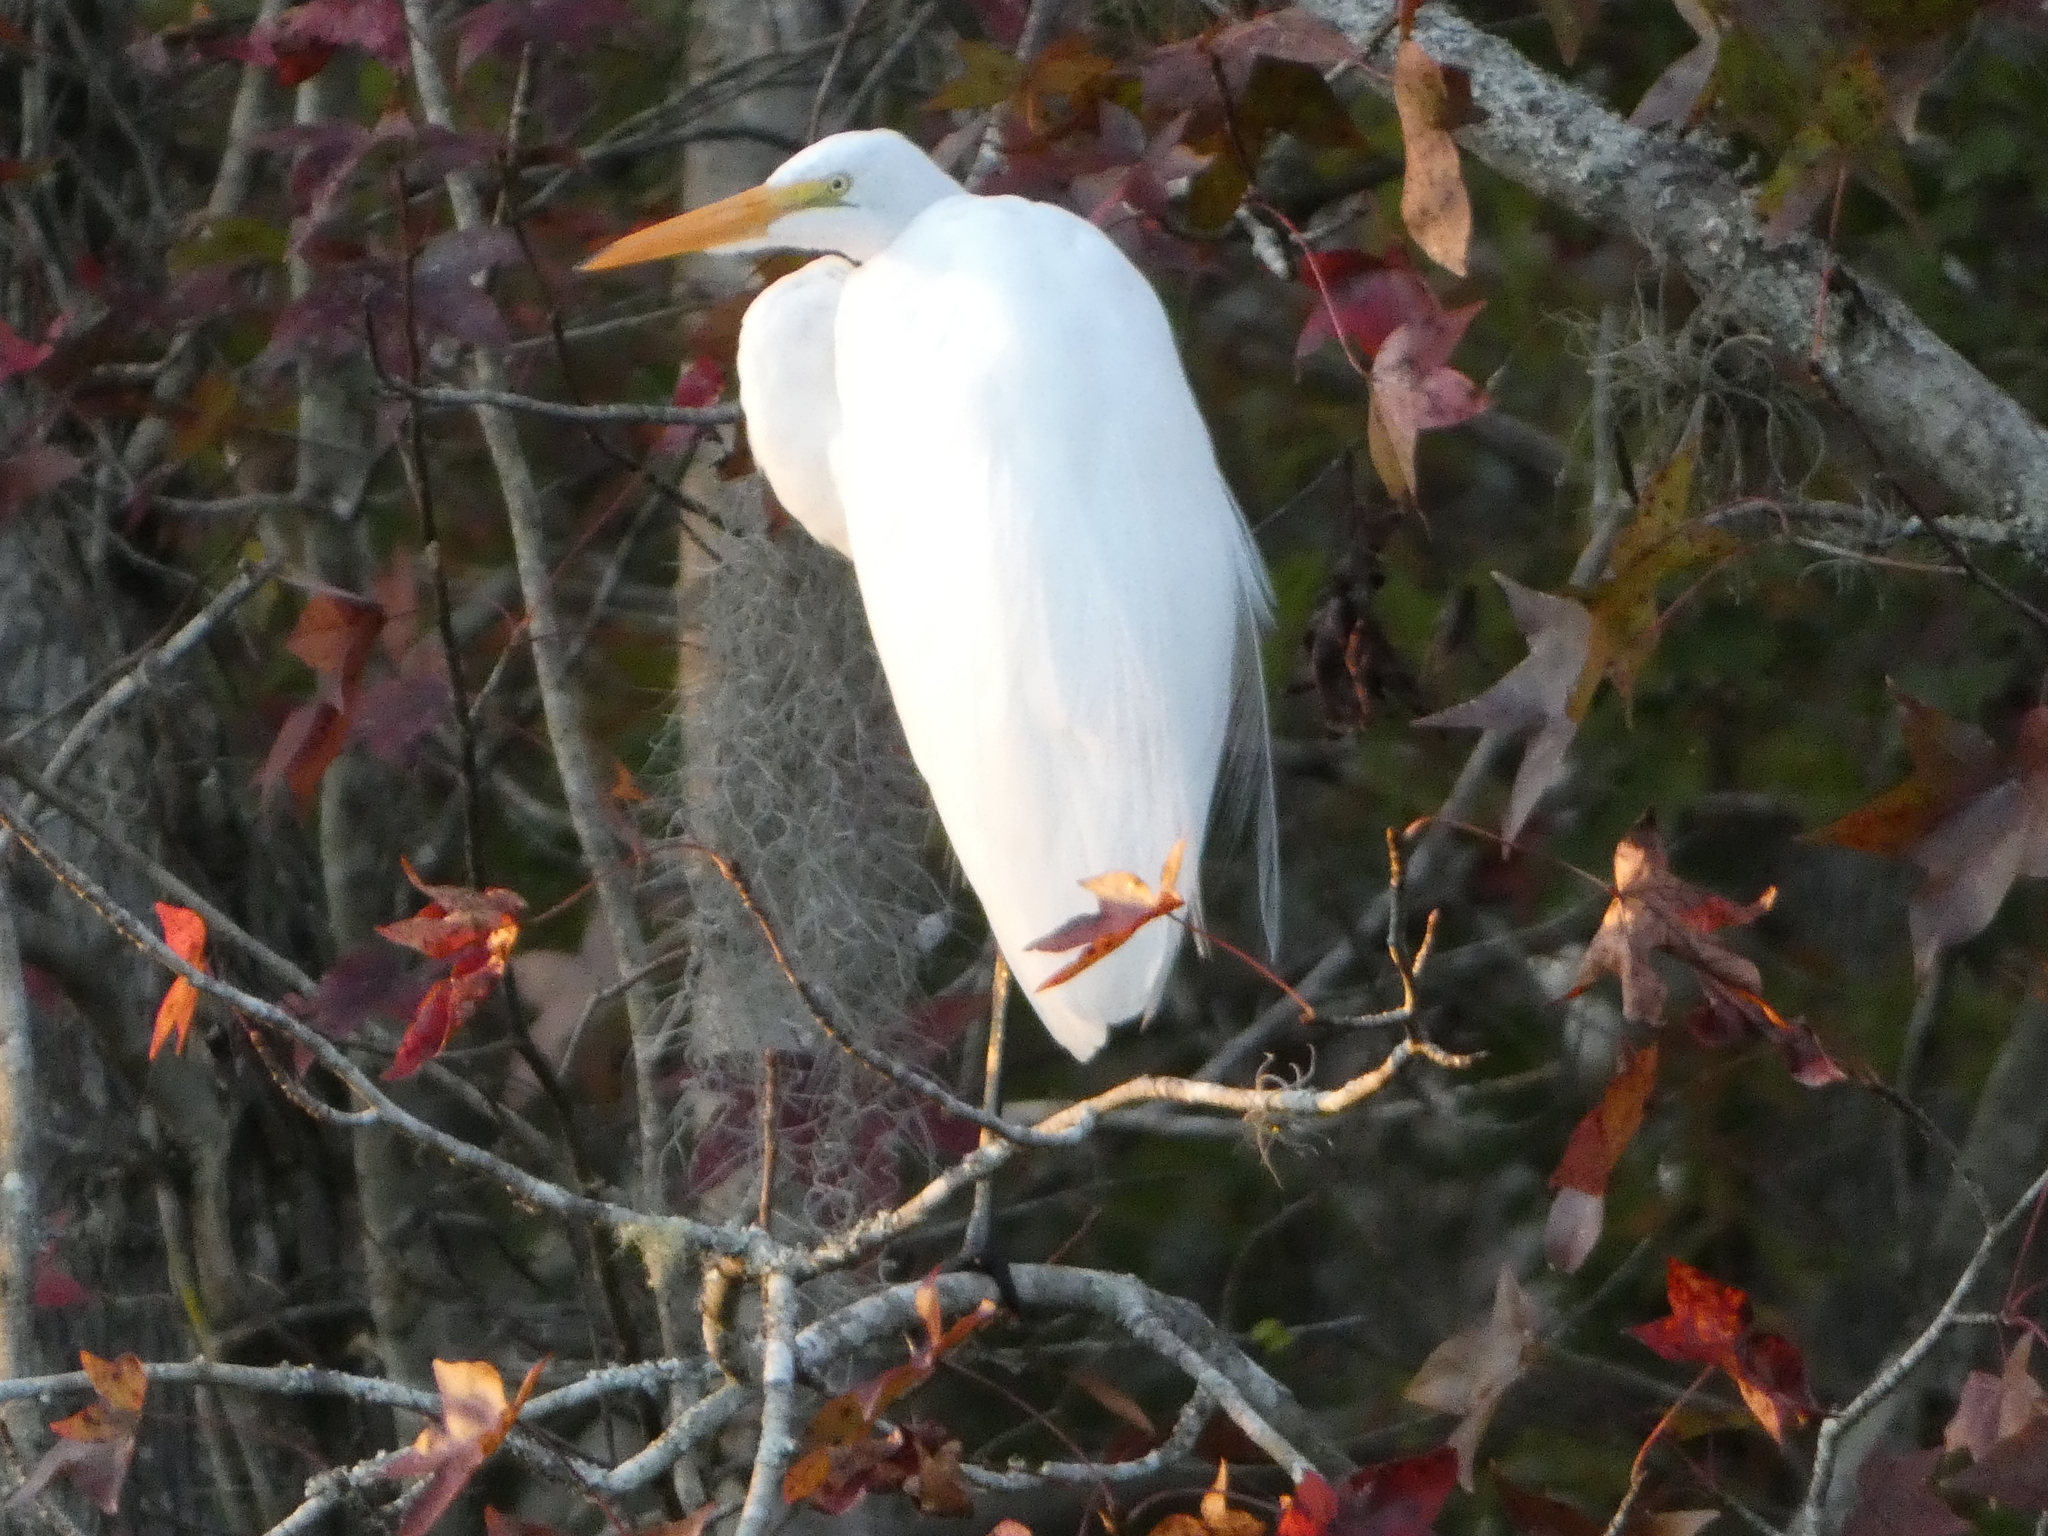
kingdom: Animalia
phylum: Chordata
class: Aves
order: Pelecaniformes
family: Ardeidae
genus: Ardea
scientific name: Ardea alba
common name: Great egret
